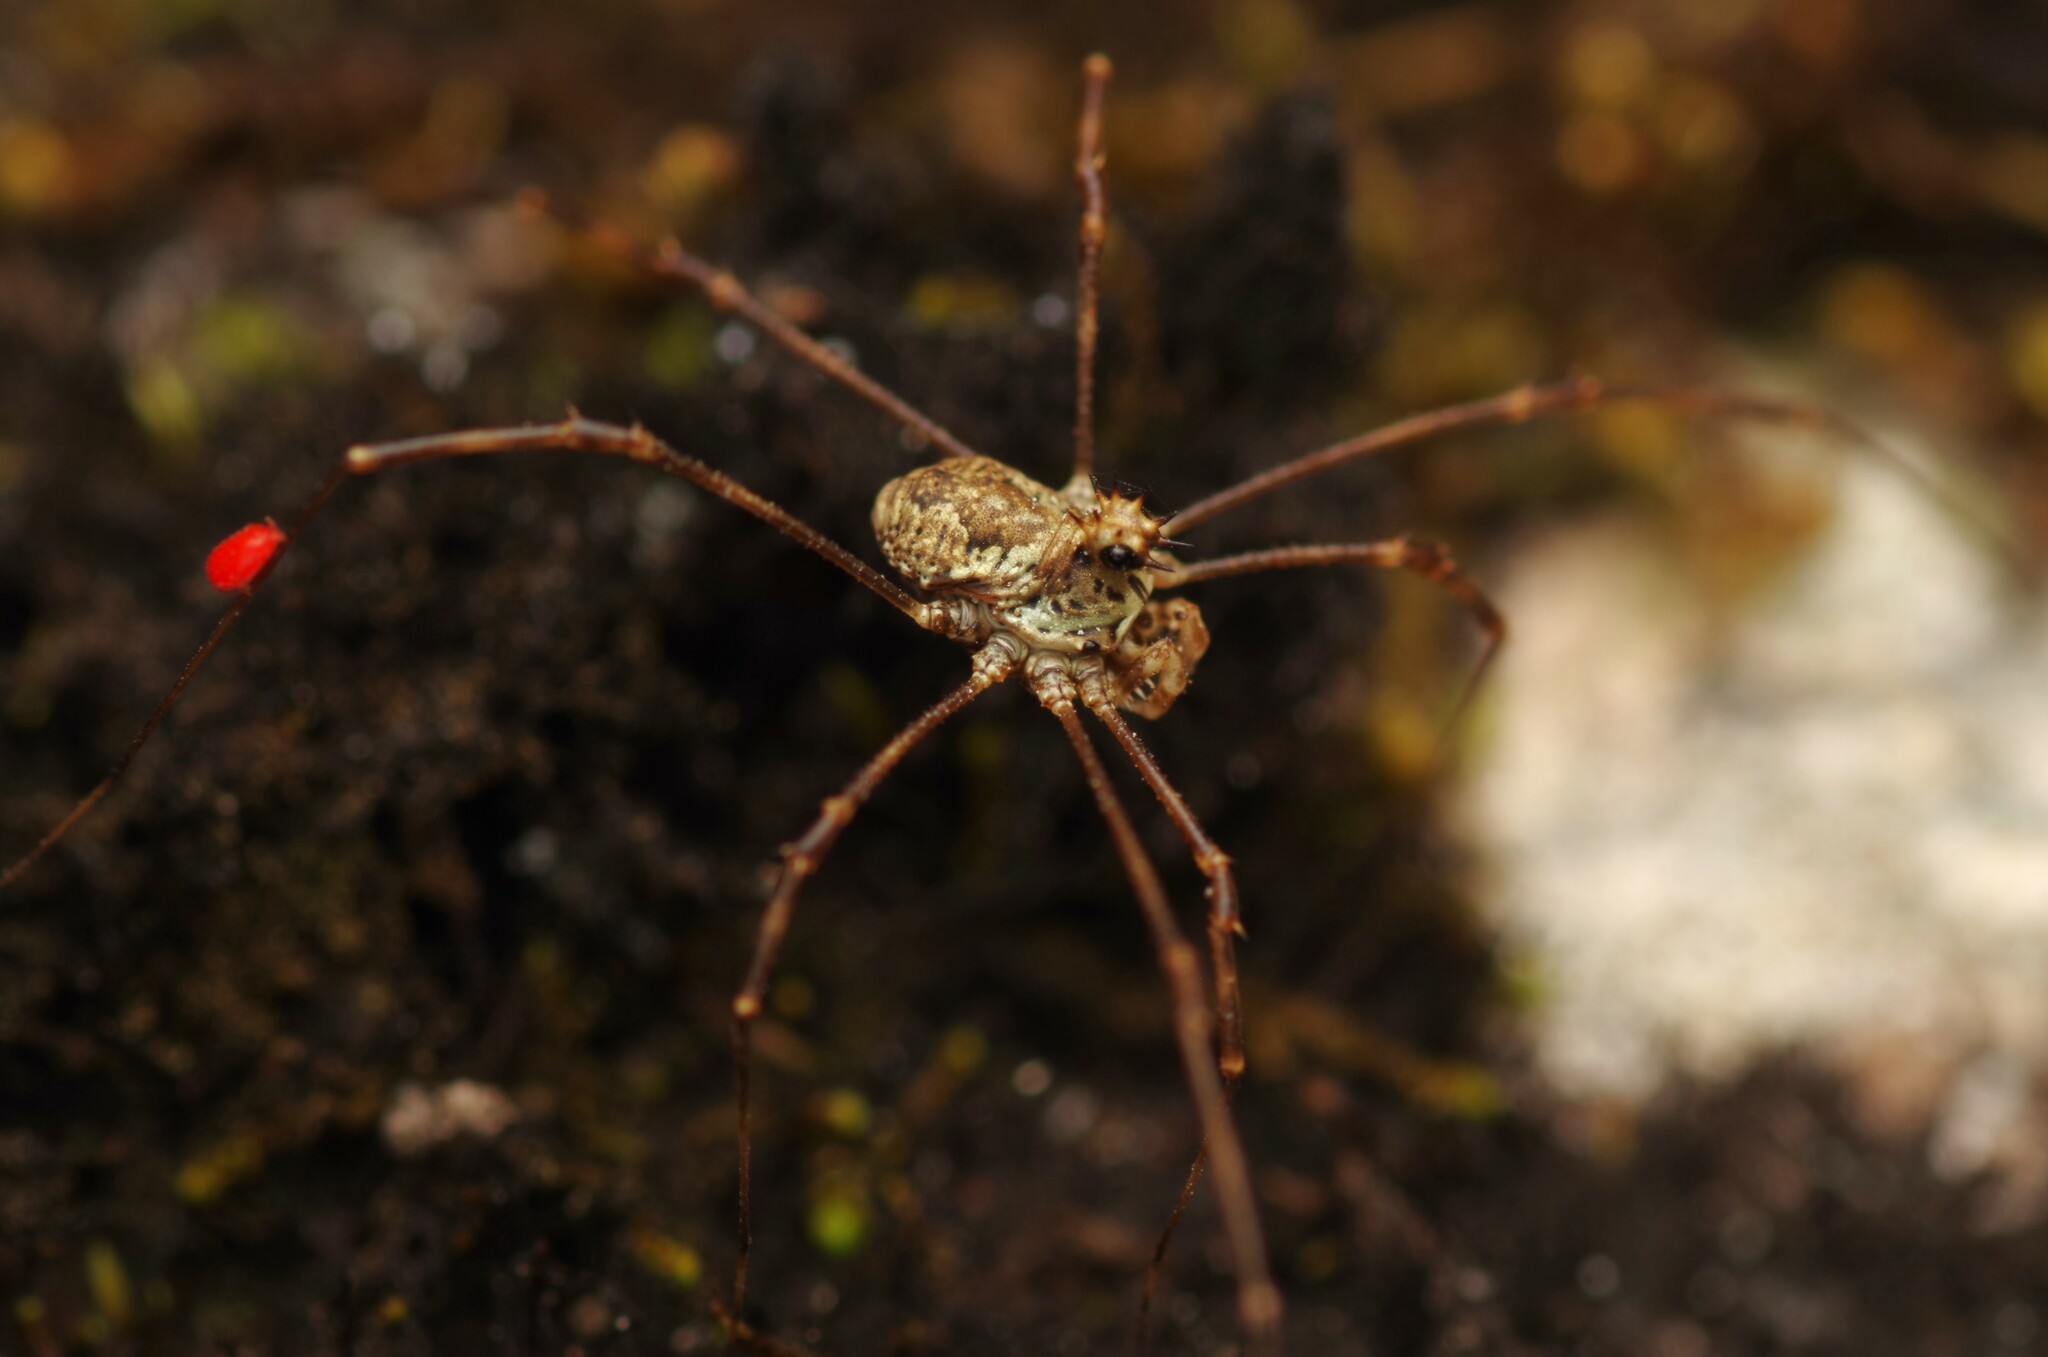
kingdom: Animalia
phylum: Arthropoda
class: Arachnida
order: Opiliones
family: Phalangiidae
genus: Megabunus
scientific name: Megabunus diadema
